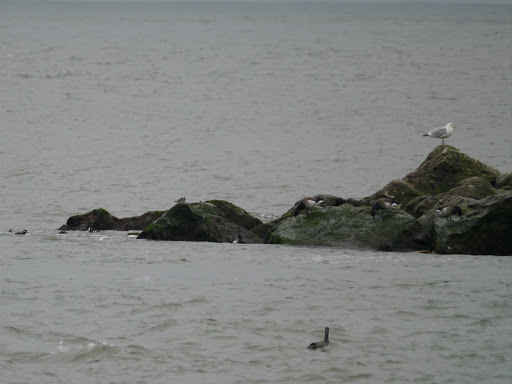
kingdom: Animalia
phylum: Chordata
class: Aves
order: Charadriiformes
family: Laridae
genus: Larus
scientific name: Larus argentatus
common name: Herring gull
